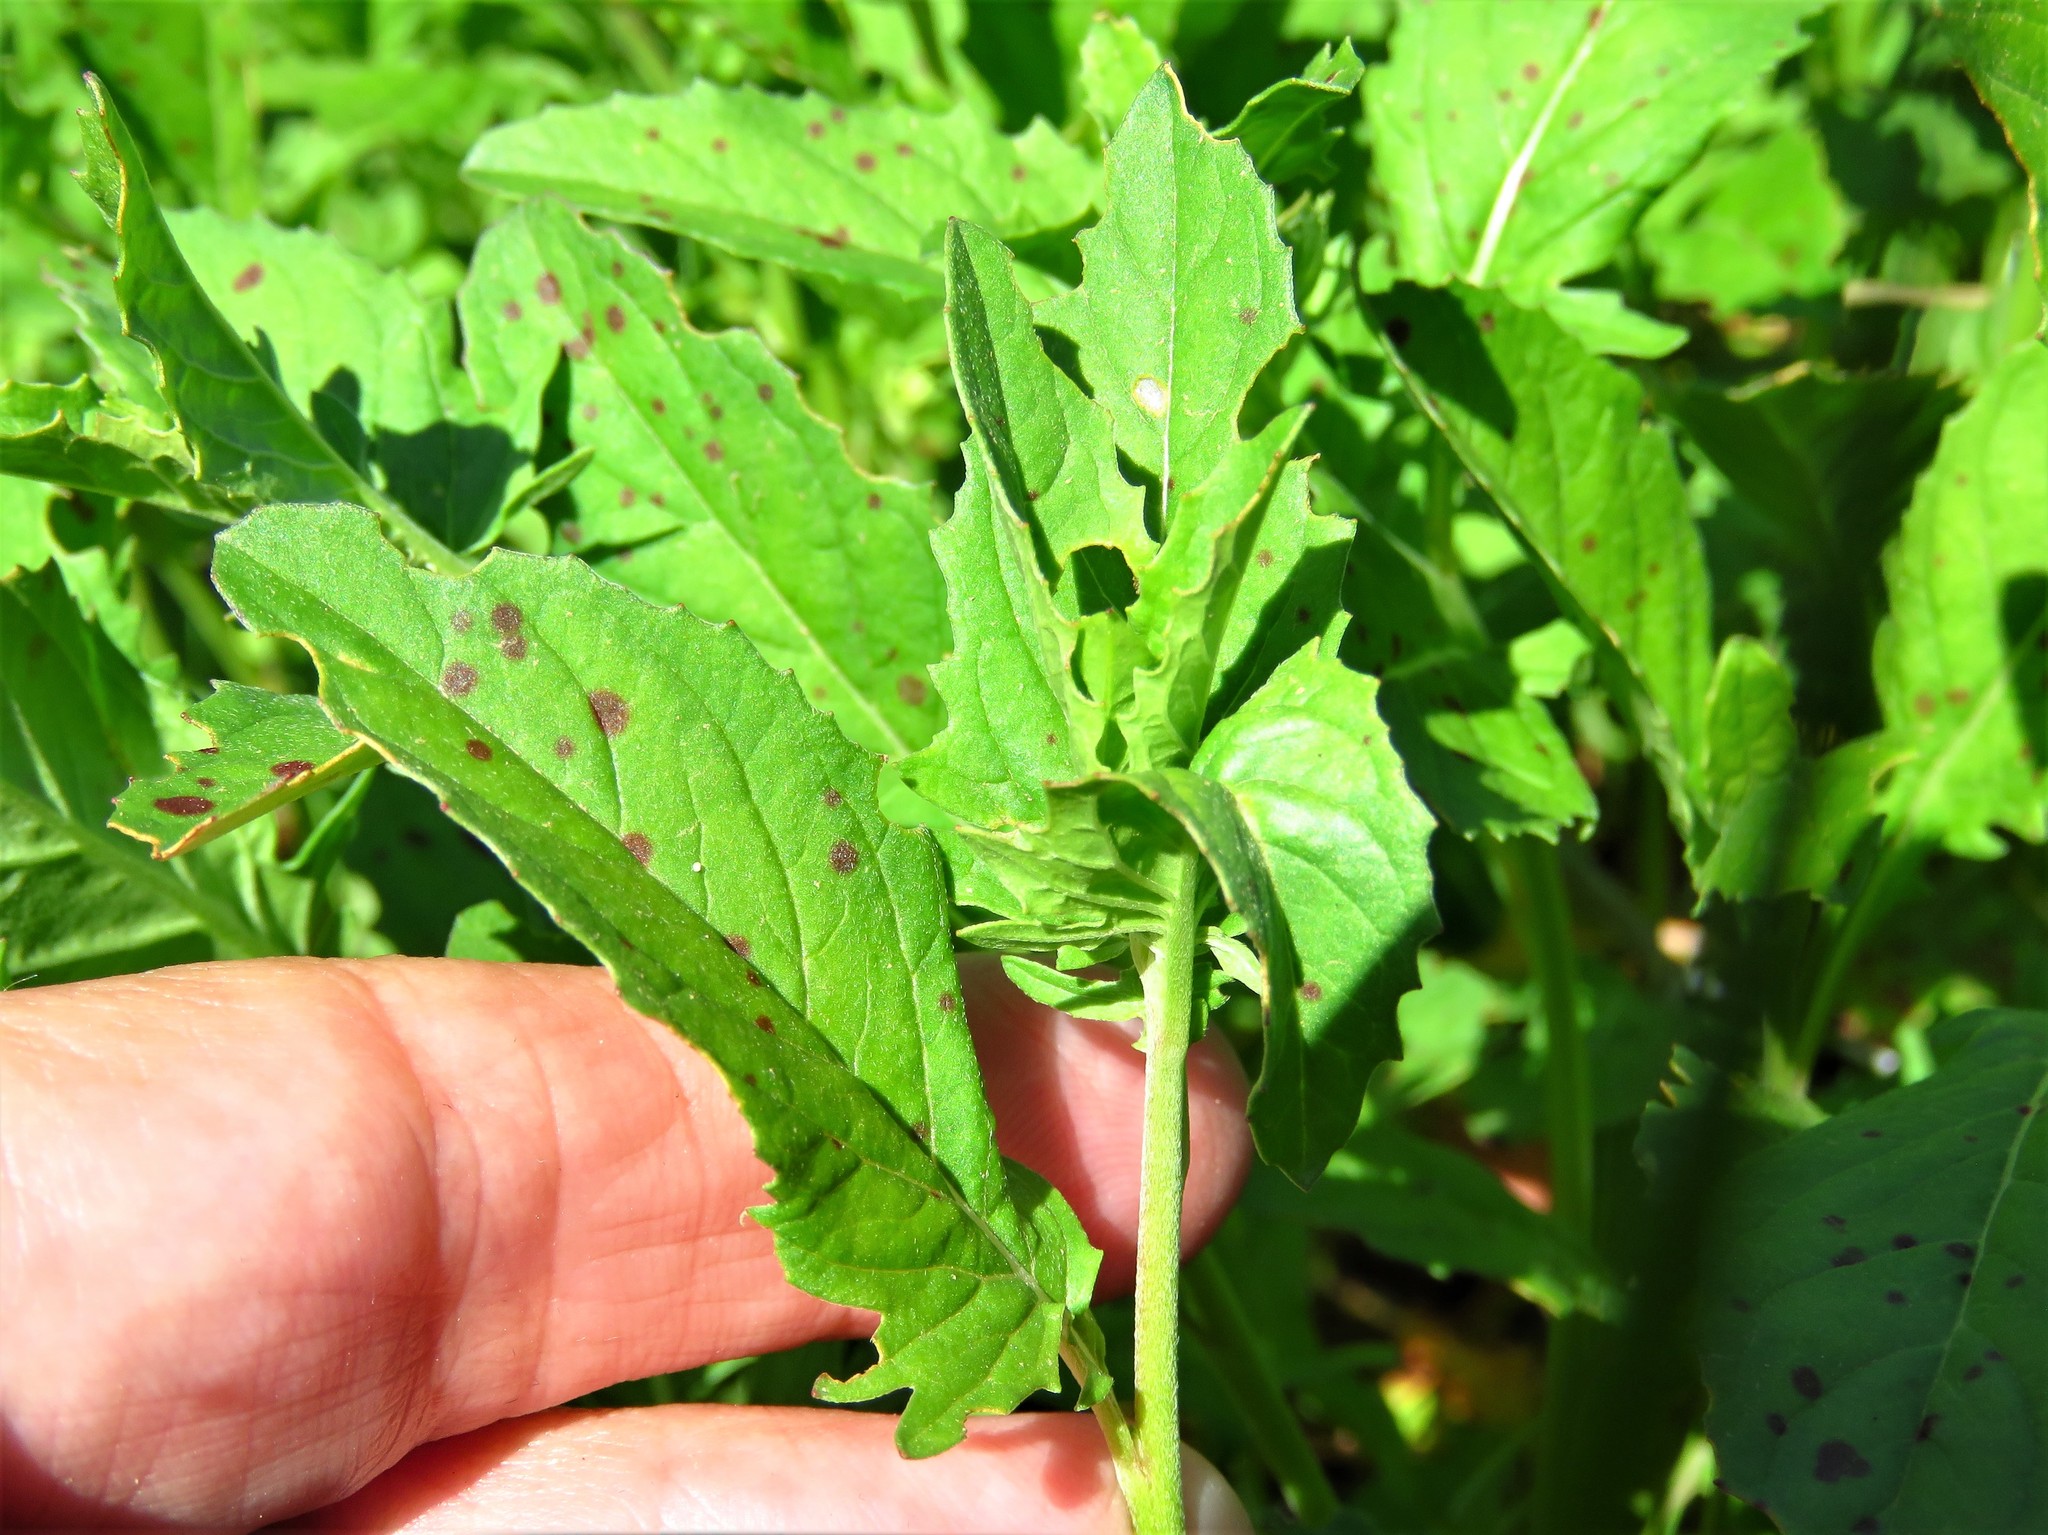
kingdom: Plantae
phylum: Tracheophyta
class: Magnoliopsida
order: Myrtales
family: Onagraceae
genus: Oenothera
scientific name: Oenothera speciosa
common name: White evening-primrose
